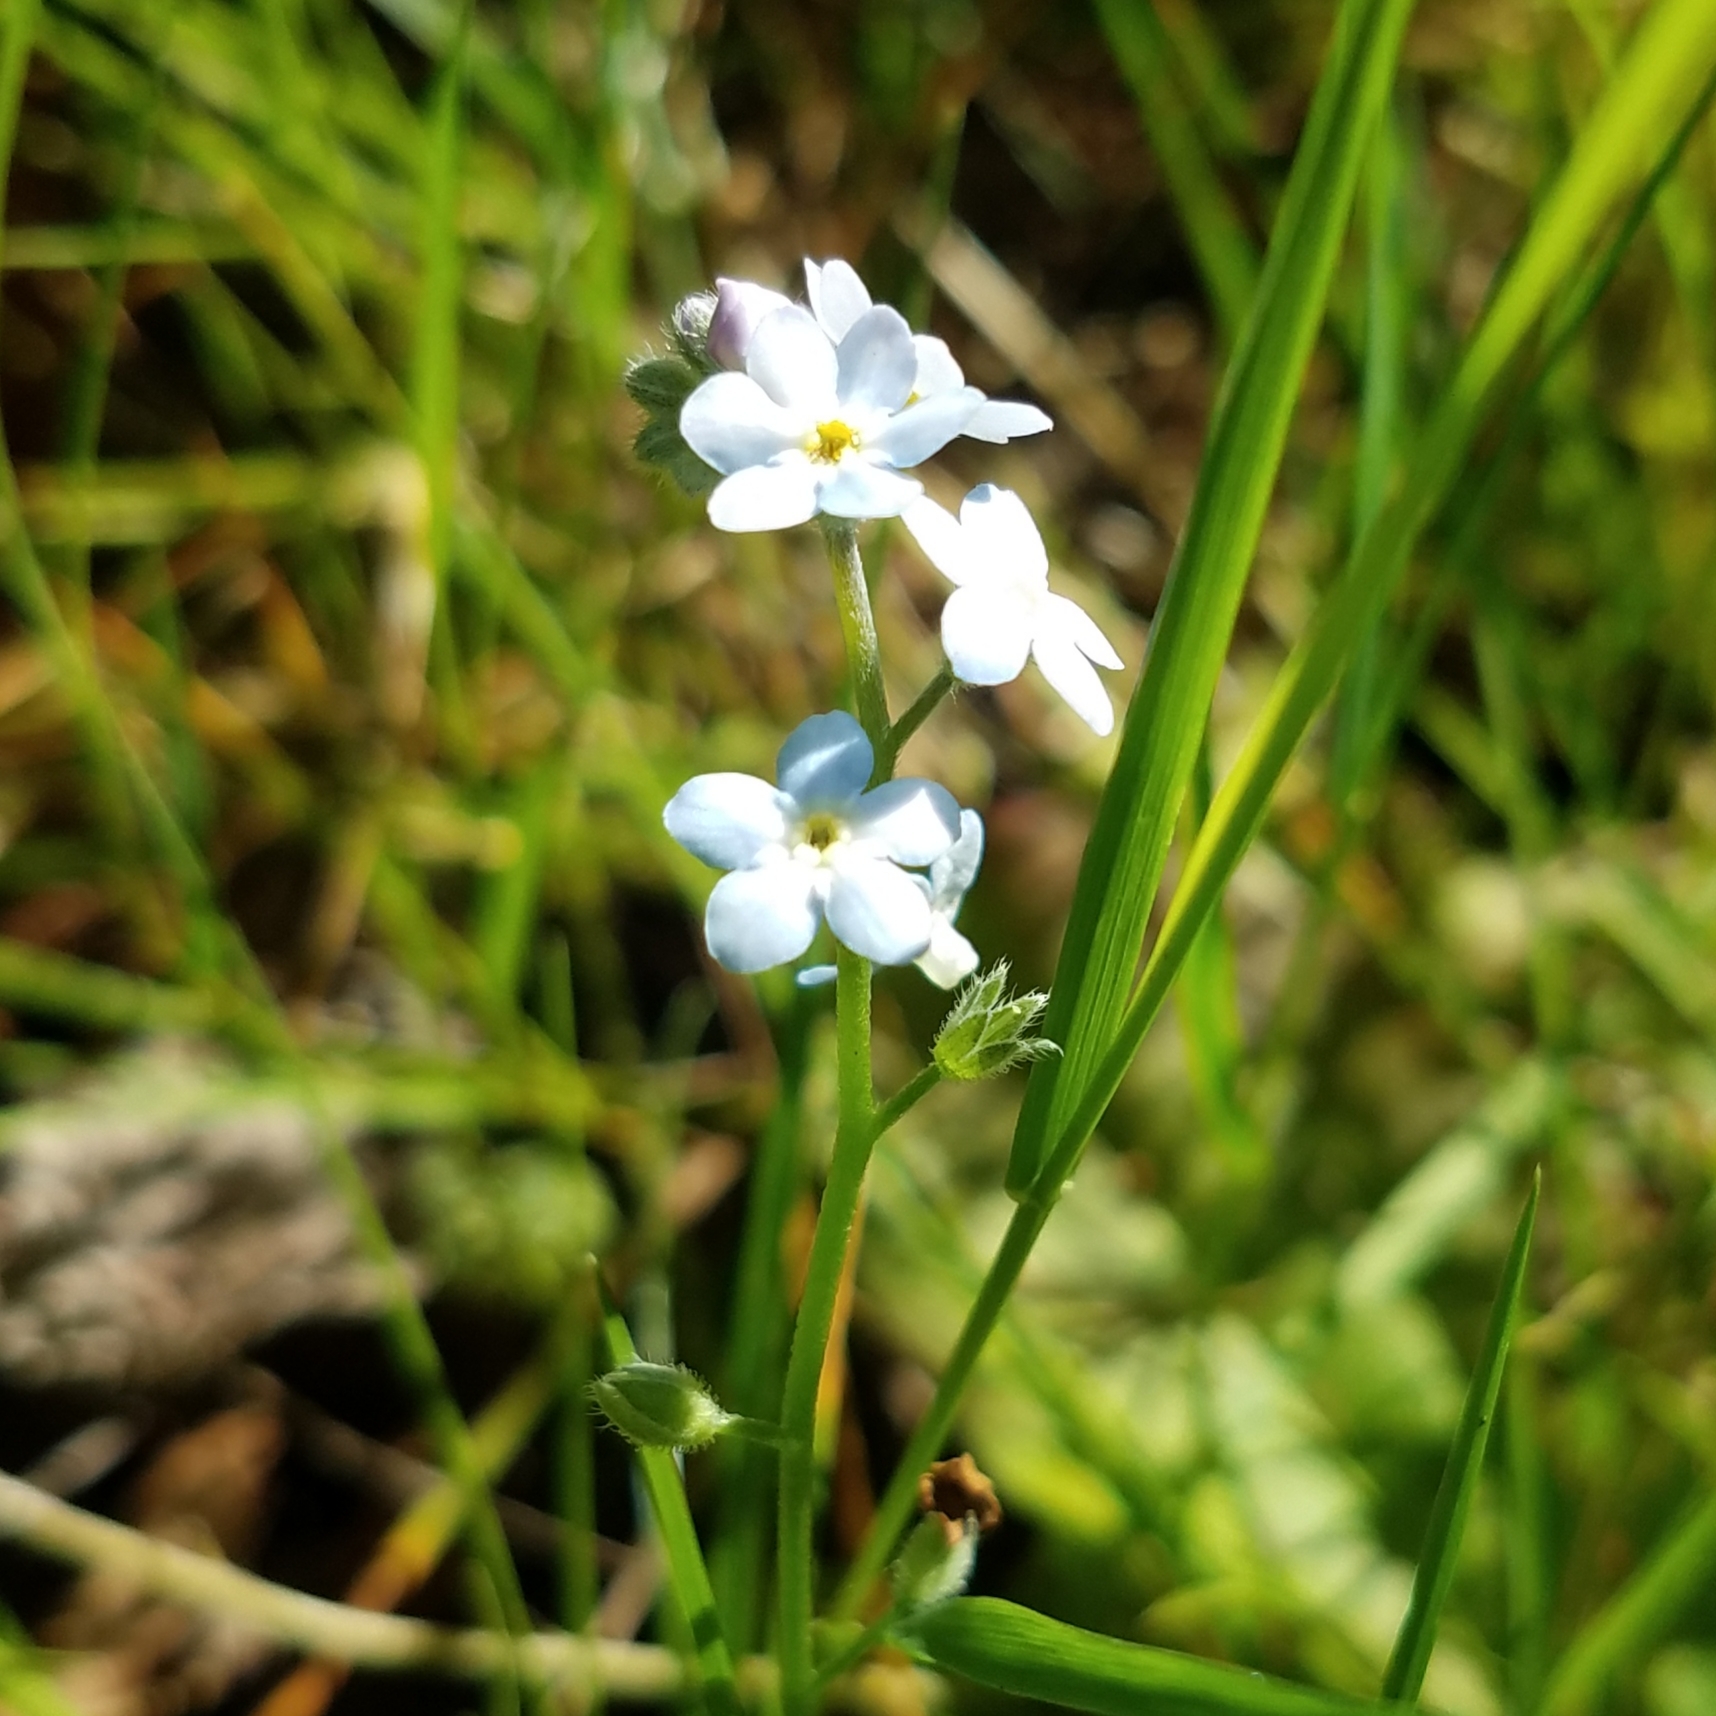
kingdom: Plantae
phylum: Tracheophyta
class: Magnoliopsida
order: Boraginales
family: Boraginaceae
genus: Myosotis
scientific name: Myosotis sylvatica
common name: Wood forget-me-not
